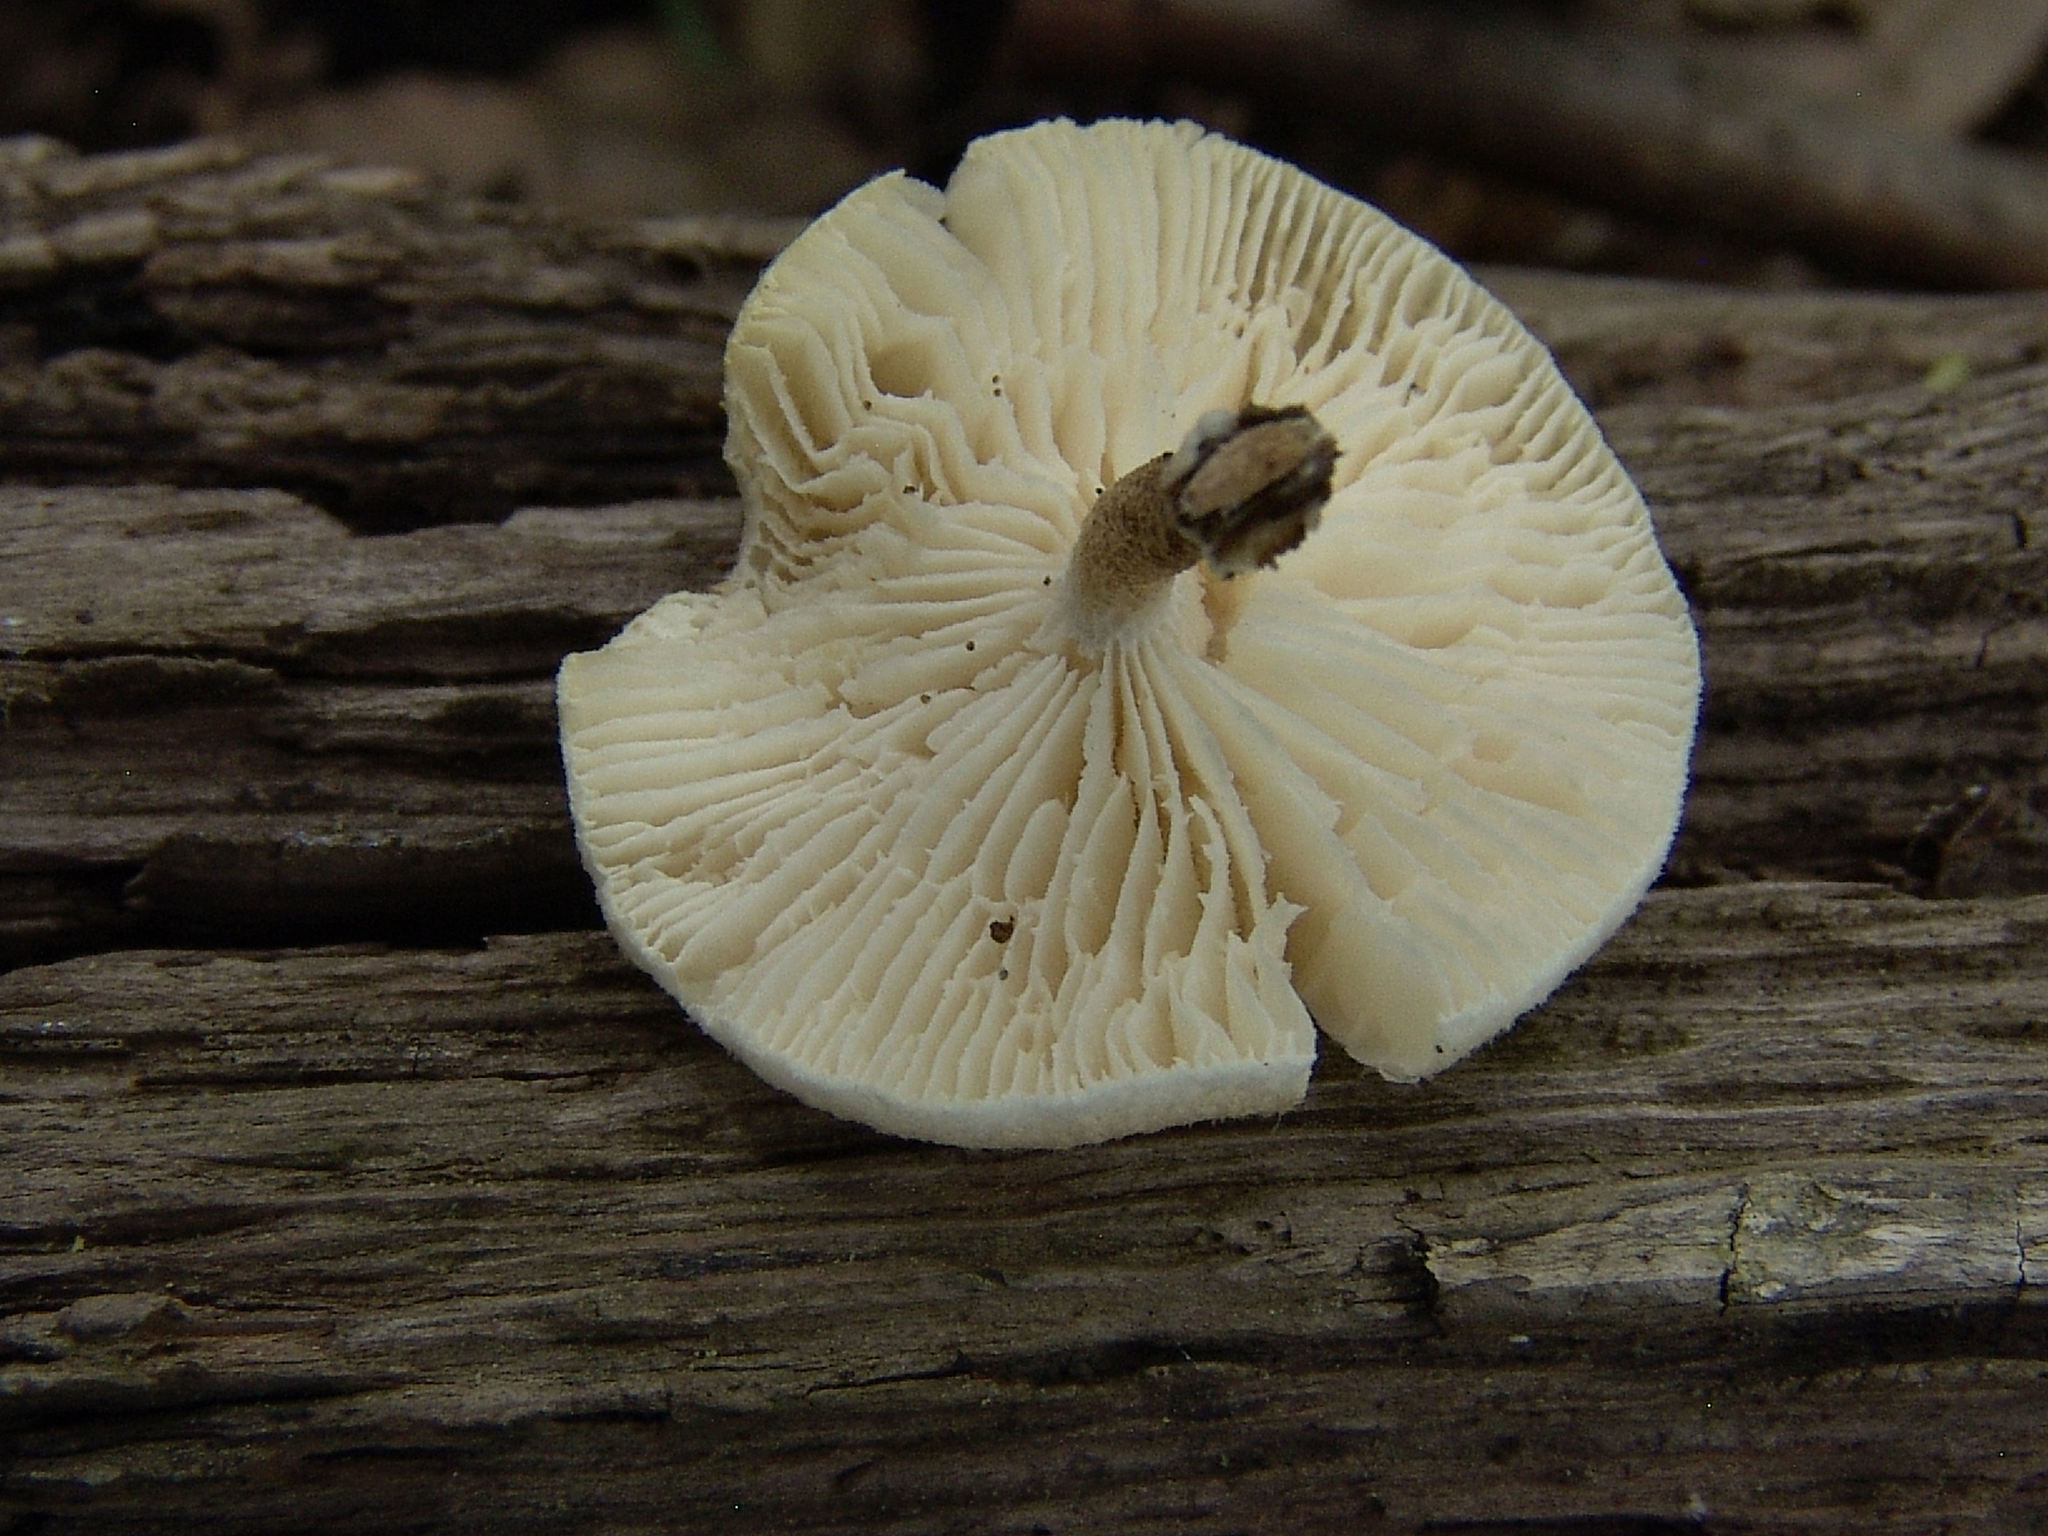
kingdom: Fungi
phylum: Basidiomycota
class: Agaricomycetes
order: Polyporales
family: Polyporaceae
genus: Lentinus
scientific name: Lentinus tigrinus
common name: Tiger sawgill
